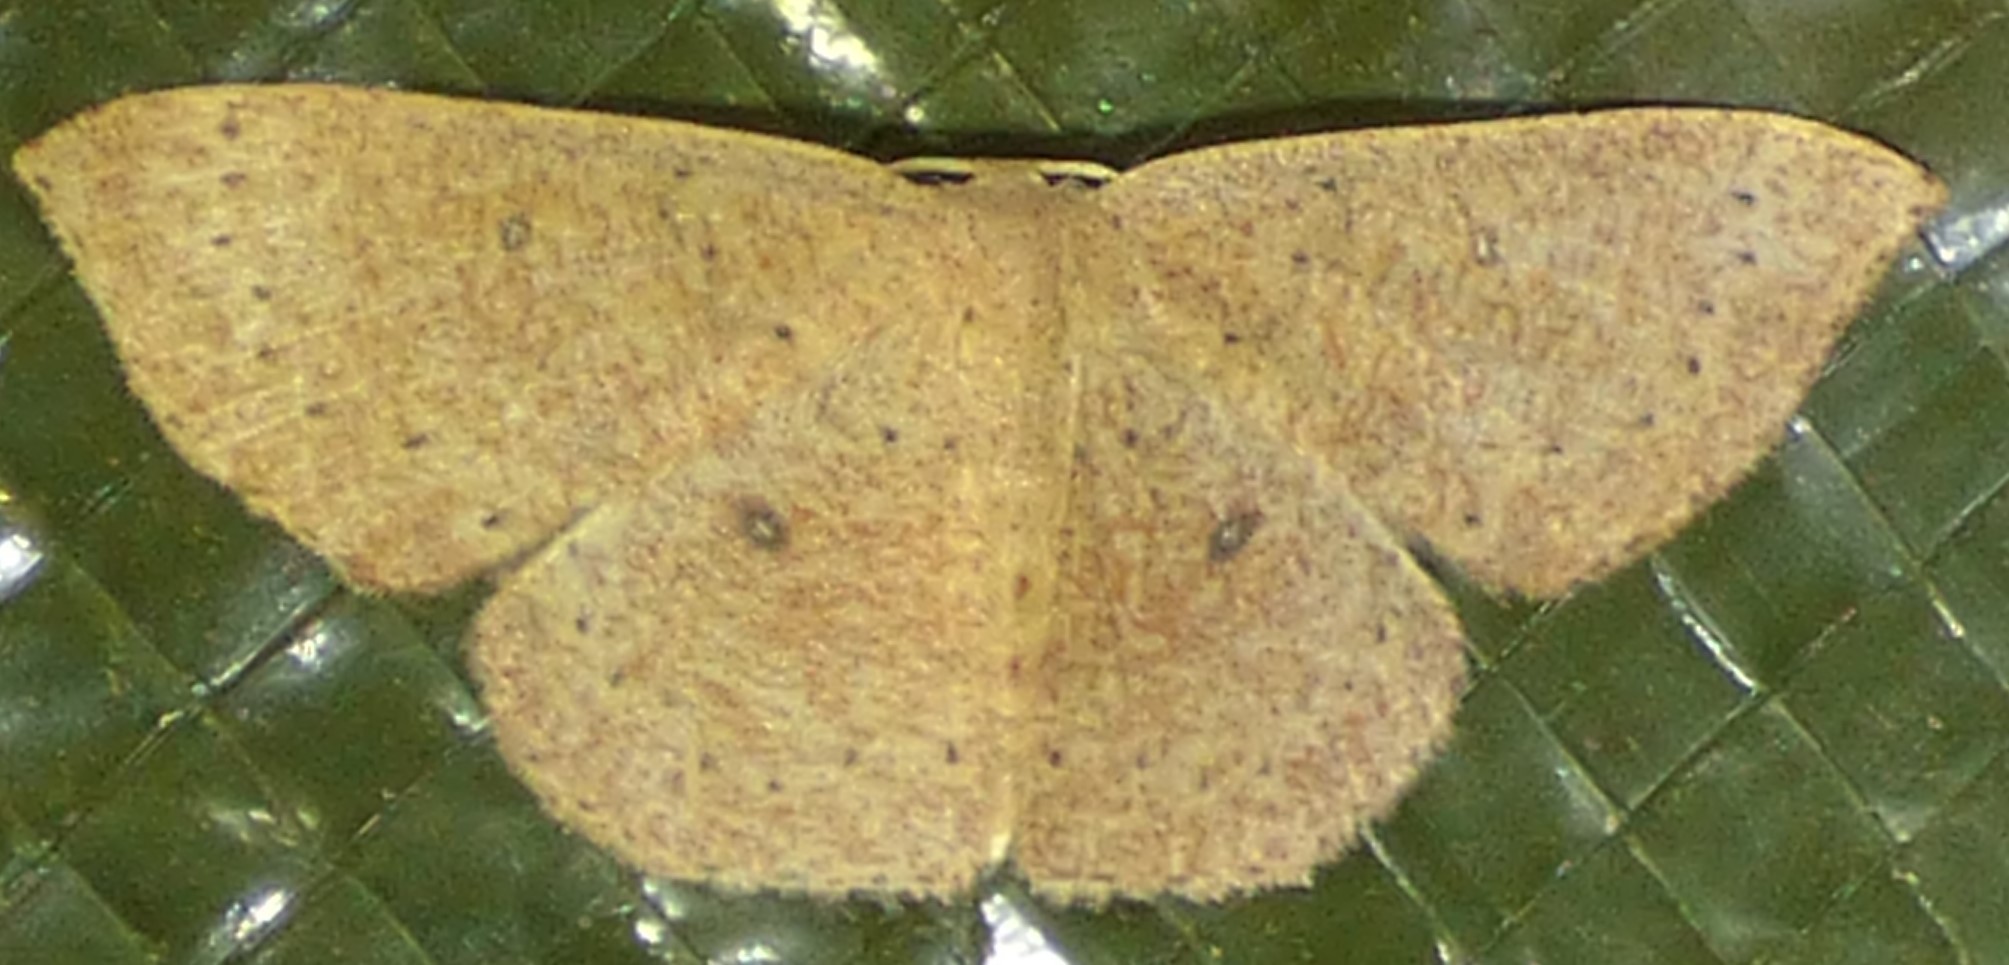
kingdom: Animalia
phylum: Arthropoda
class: Insecta
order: Lepidoptera
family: Geometridae
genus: Cyclophora
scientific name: Cyclophora packardi
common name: Packard's wave
